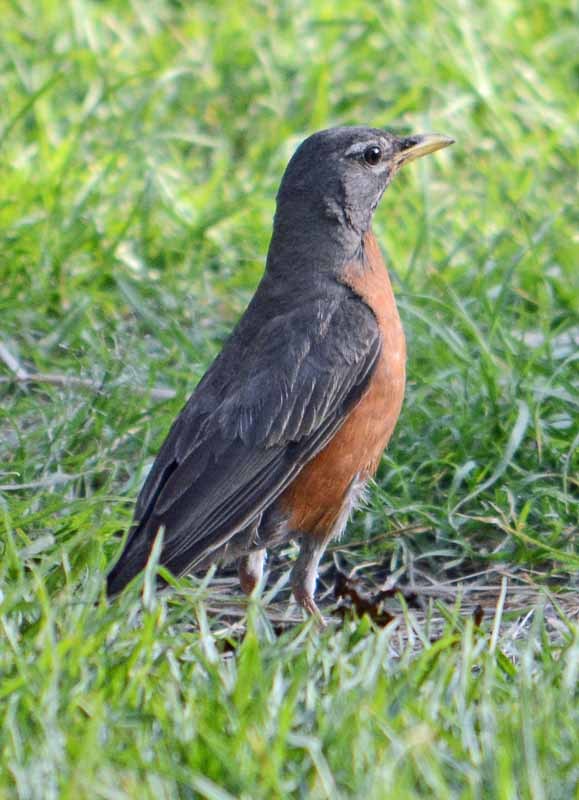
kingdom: Animalia
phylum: Chordata
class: Aves
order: Passeriformes
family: Turdidae
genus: Turdus
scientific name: Turdus migratorius
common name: American robin
